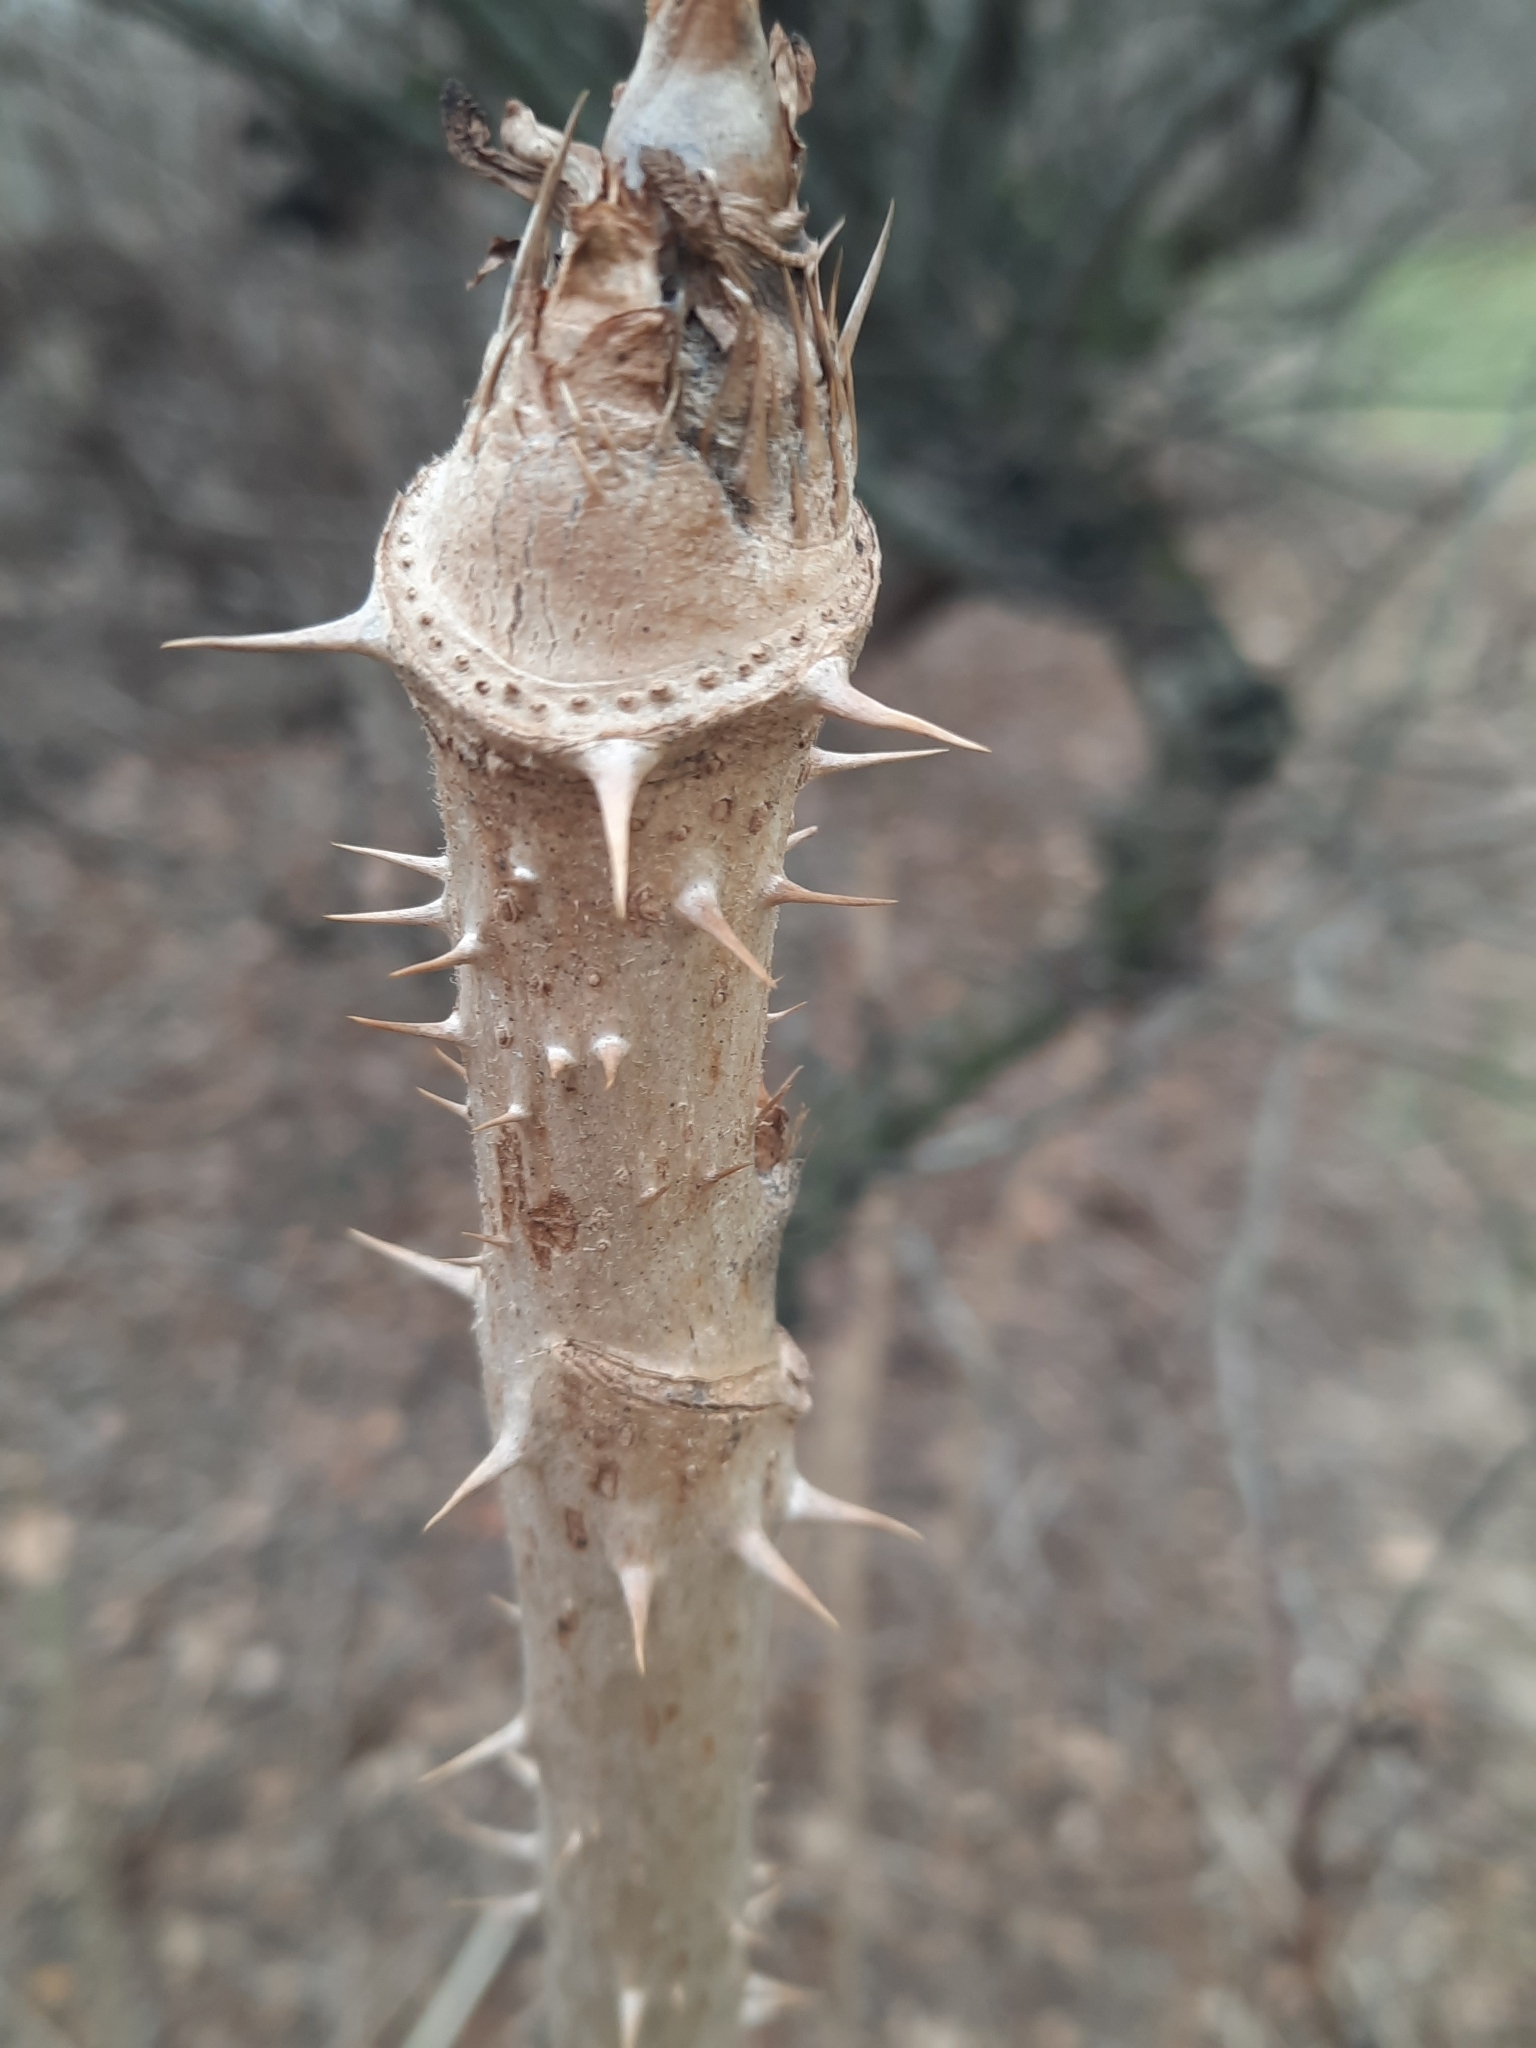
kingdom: Plantae
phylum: Tracheophyta
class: Magnoliopsida
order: Apiales
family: Araliaceae
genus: Aralia
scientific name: Aralia elata
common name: Japanese angelica-tree
